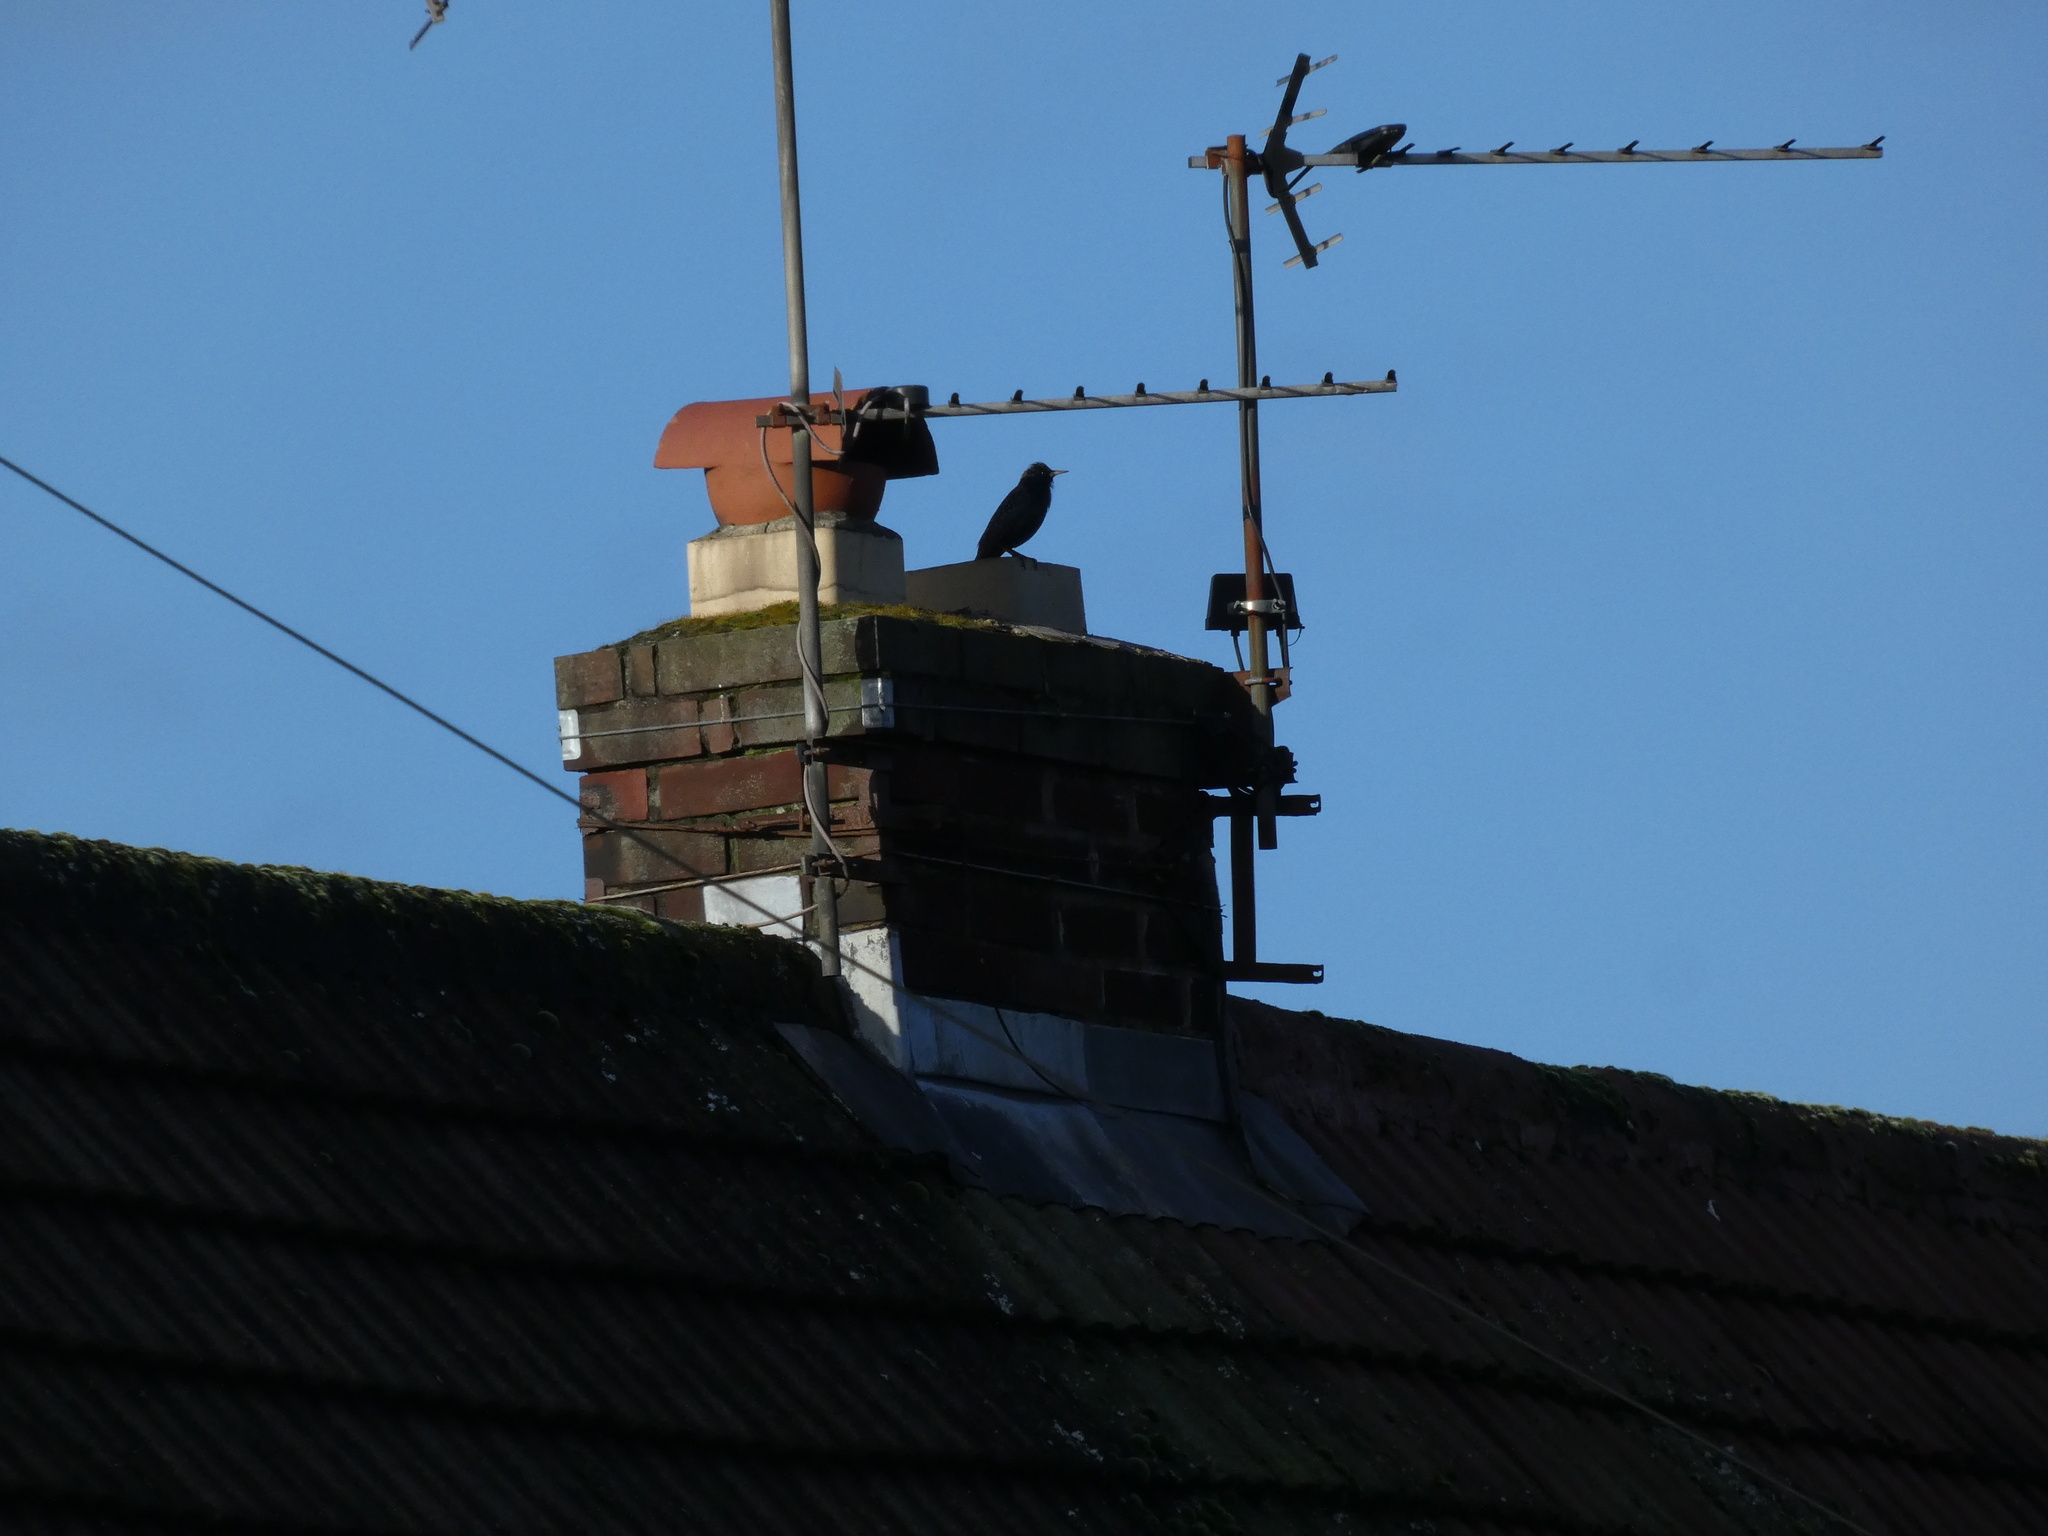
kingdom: Animalia
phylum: Chordata
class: Aves
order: Passeriformes
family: Sturnidae
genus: Sturnus
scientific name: Sturnus vulgaris
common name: Common starling
